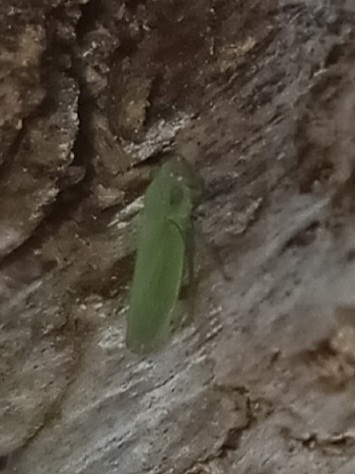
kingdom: Animalia
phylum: Arthropoda
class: Insecta
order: Hemiptera
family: Cicadellidae
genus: Helochara
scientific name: Helochara communis
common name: Bog leafhopper
